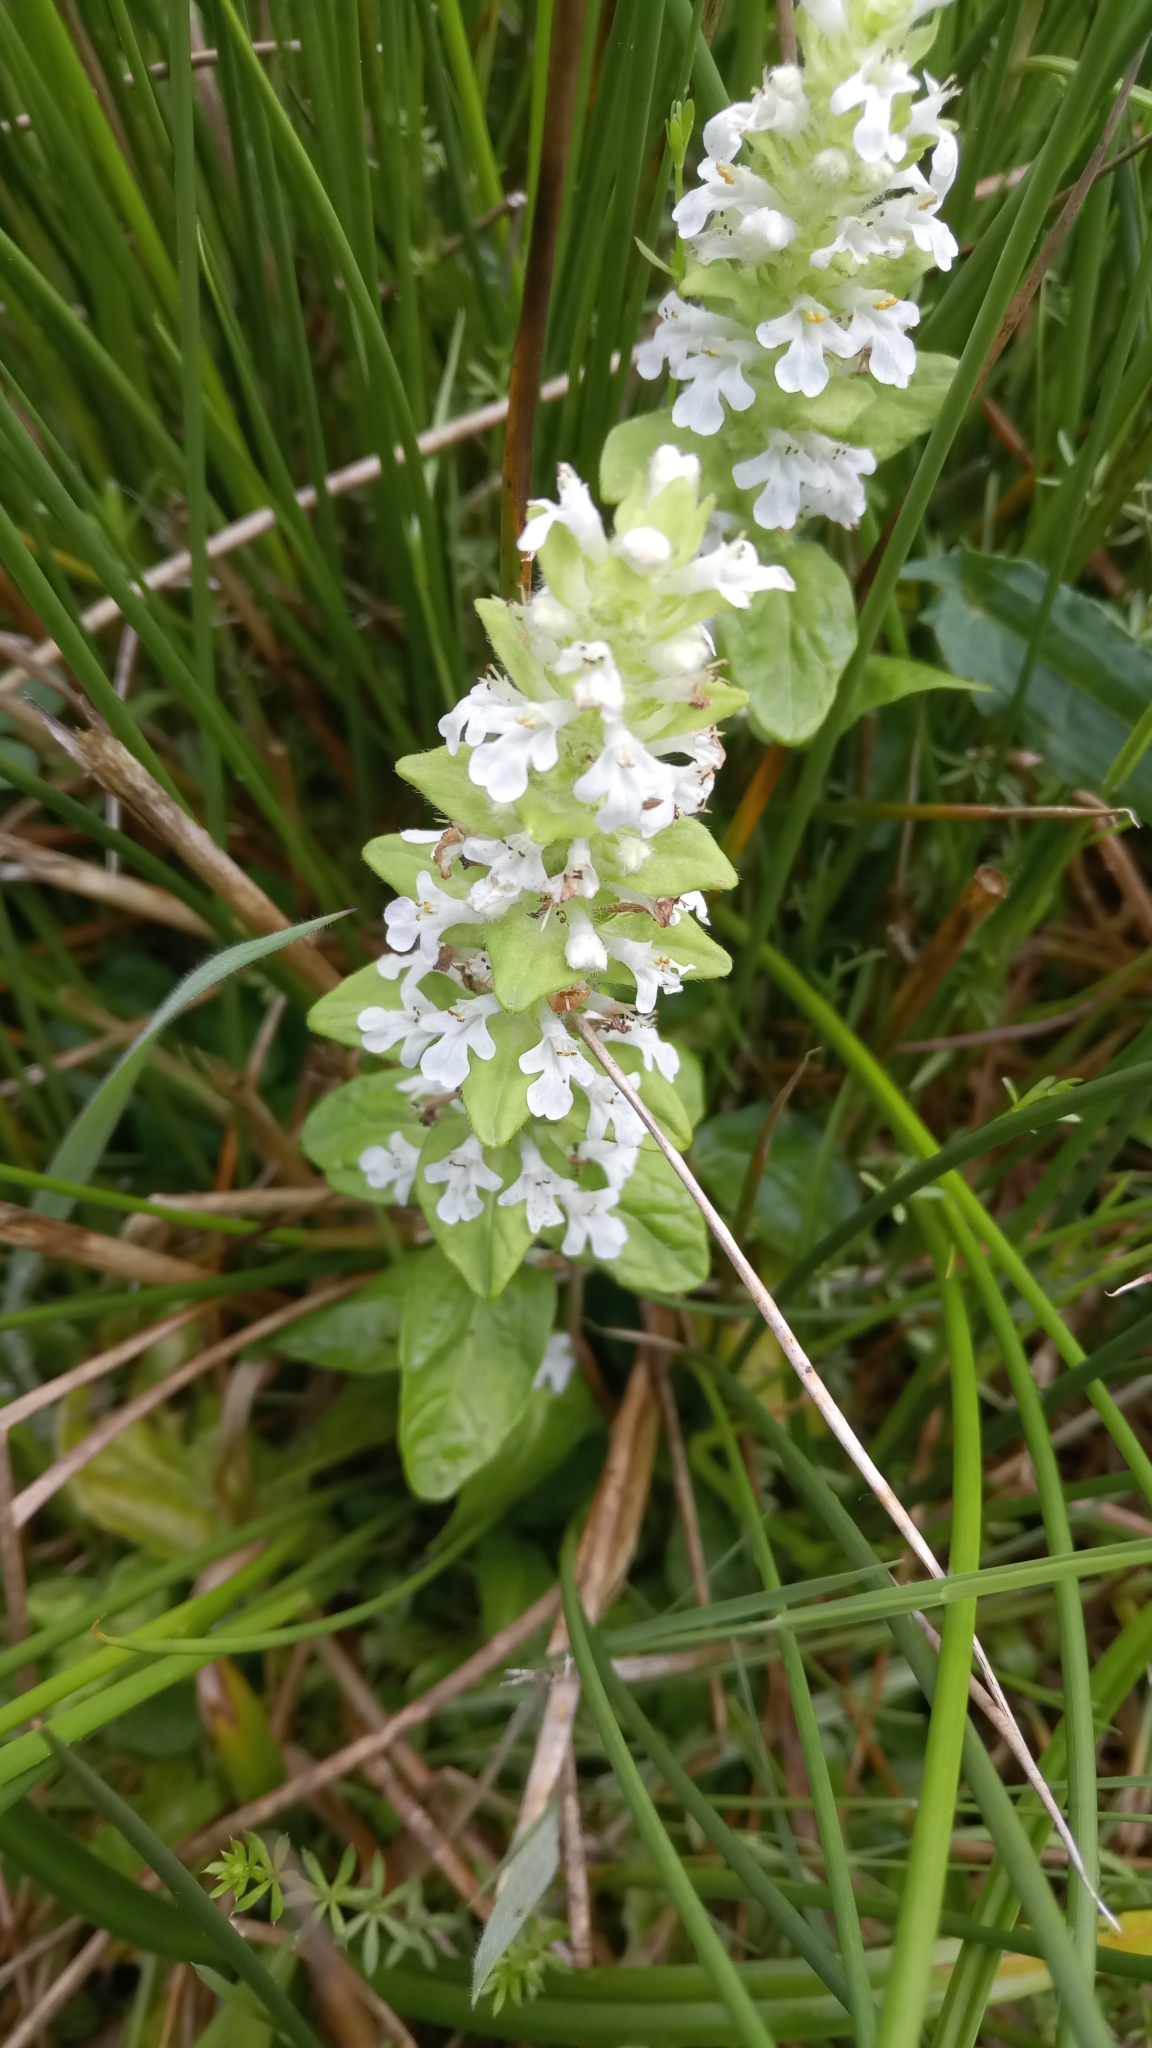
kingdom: Plantae
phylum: Tracheophyta
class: Magnoliopsida
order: Lamiales
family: Lamiaceae
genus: Ajuga
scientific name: Ajuga reptans
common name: Bugle
